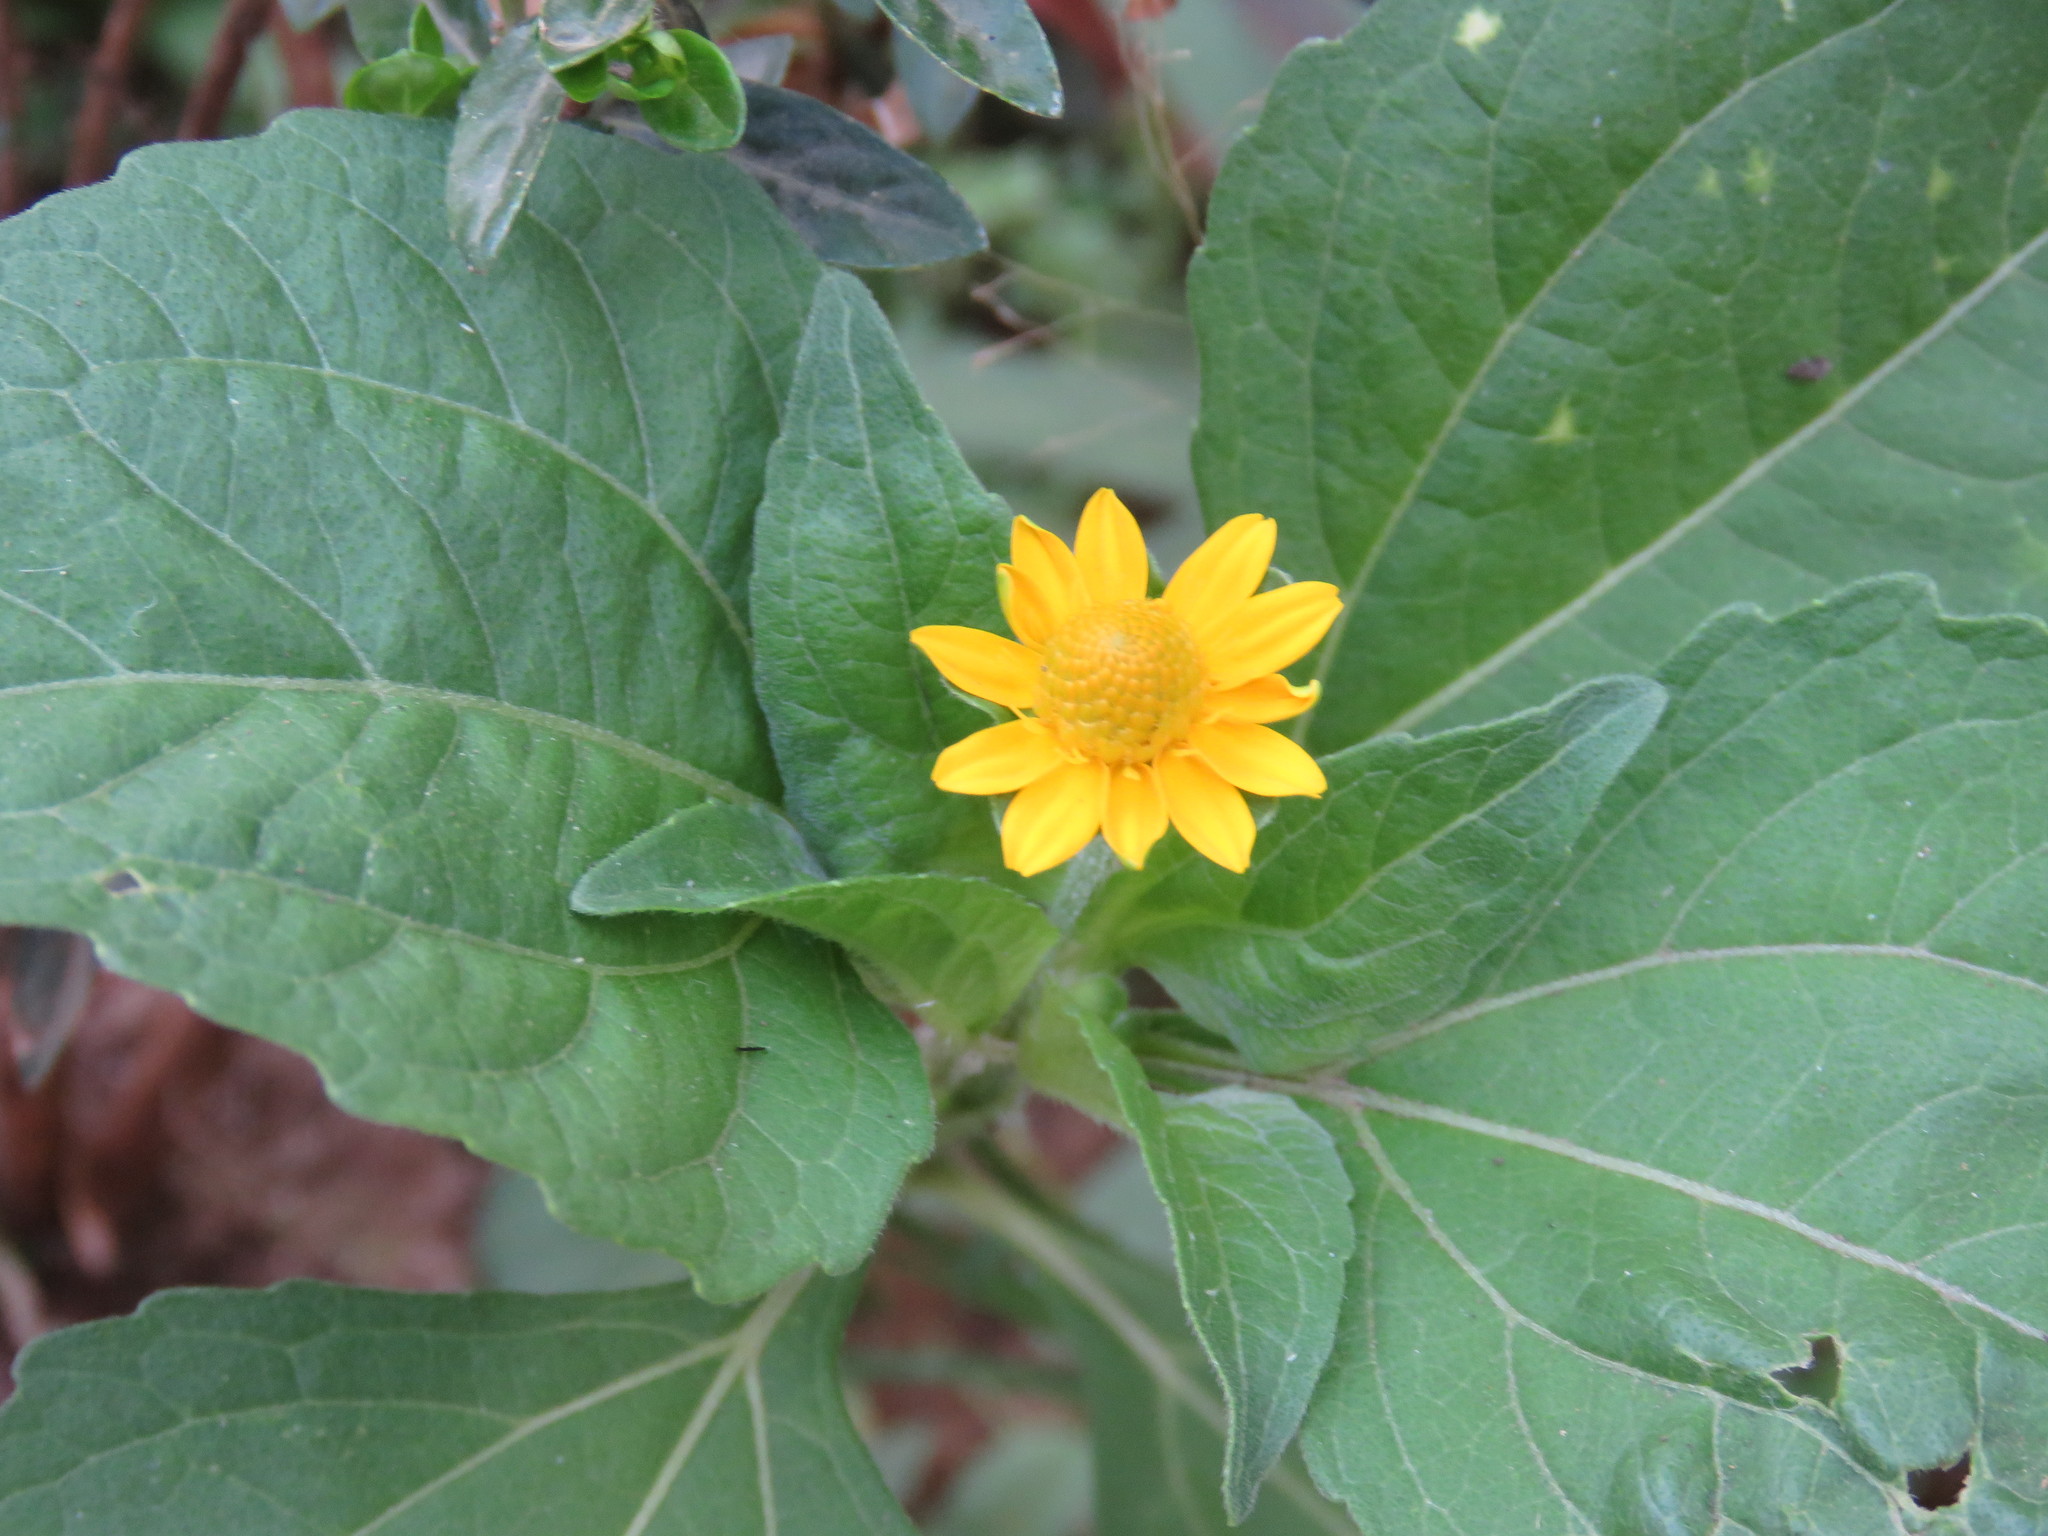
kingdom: Plantae
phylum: Tracheophyta
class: Magnoliopsida
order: Asterales
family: Asteraceae
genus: Melampodium
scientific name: Melampodium divaricatum
